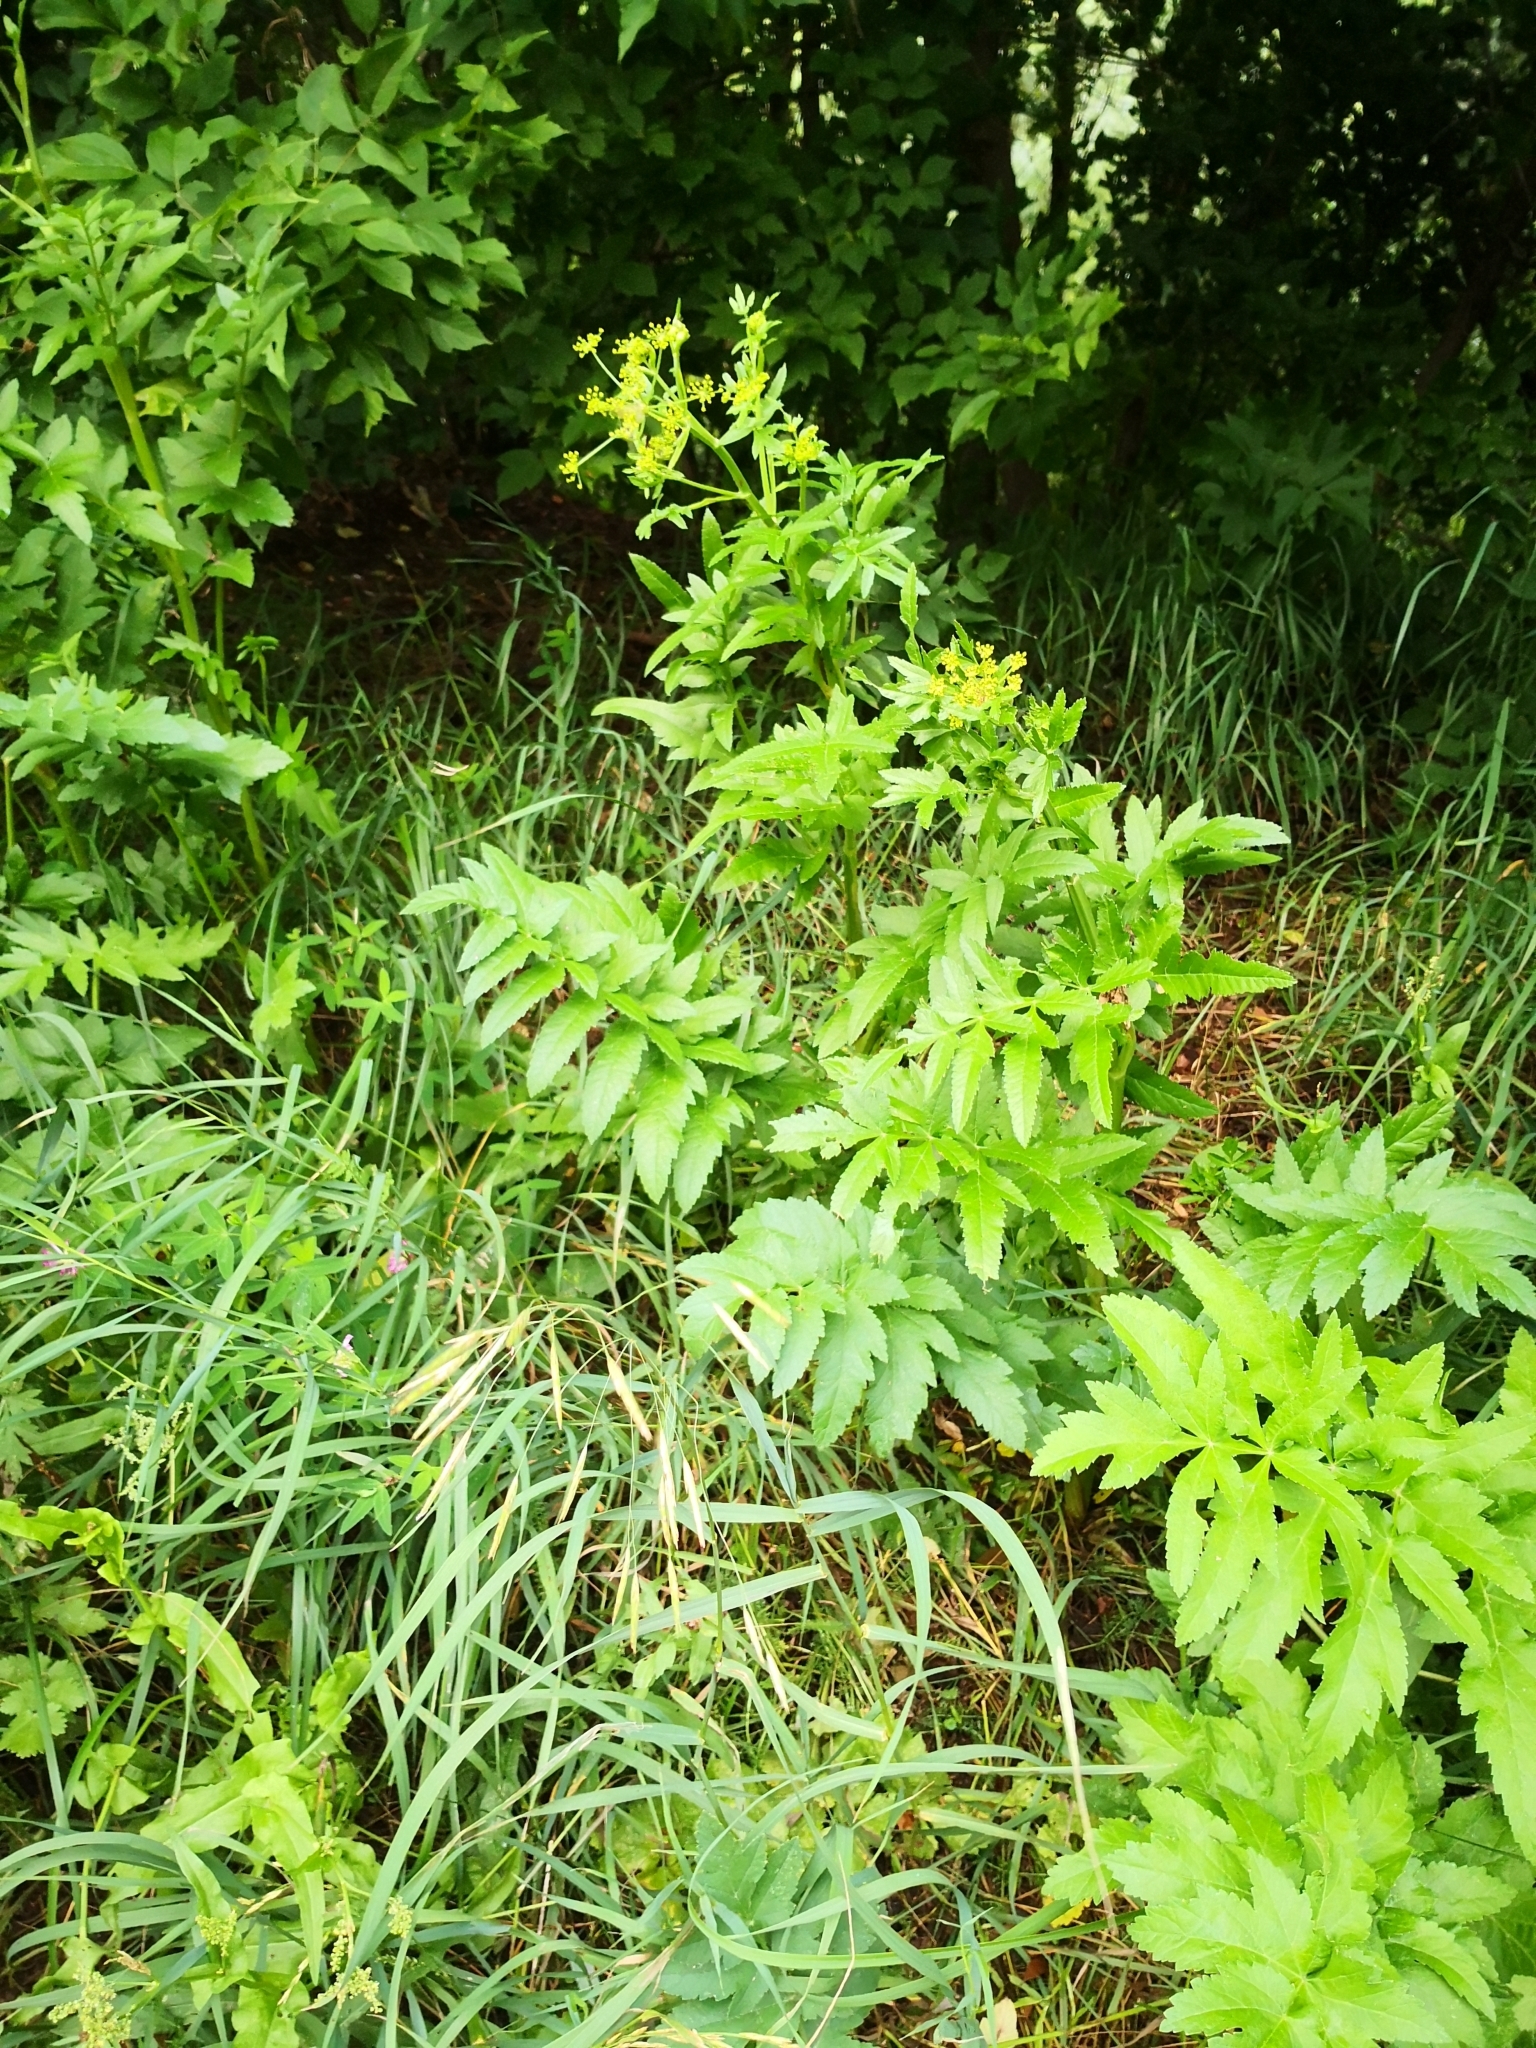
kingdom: Plantae
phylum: Tracheophyta
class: Magnoliopsida
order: Apiales
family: Apiaceae
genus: Pastinaca
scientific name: Pastinaca sativa
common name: Wild parsnip
